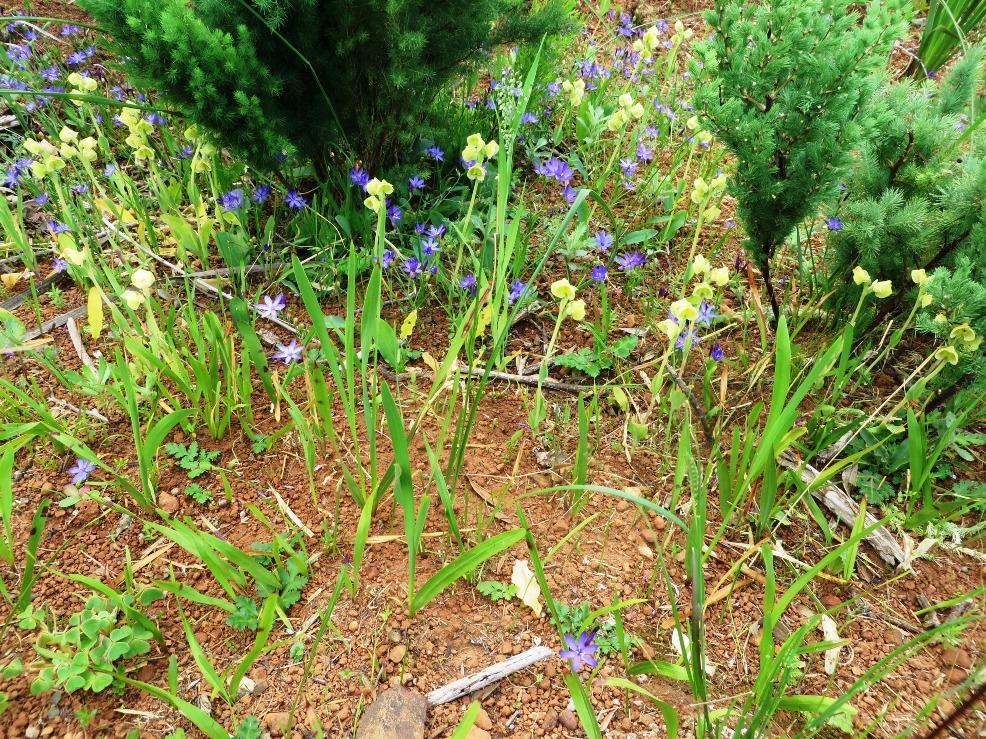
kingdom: Plantae
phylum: Tracheophyta
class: Liliopsida
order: Asparagales
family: Orchidaceae
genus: Pterygodium
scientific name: Pterygodium catholicum
